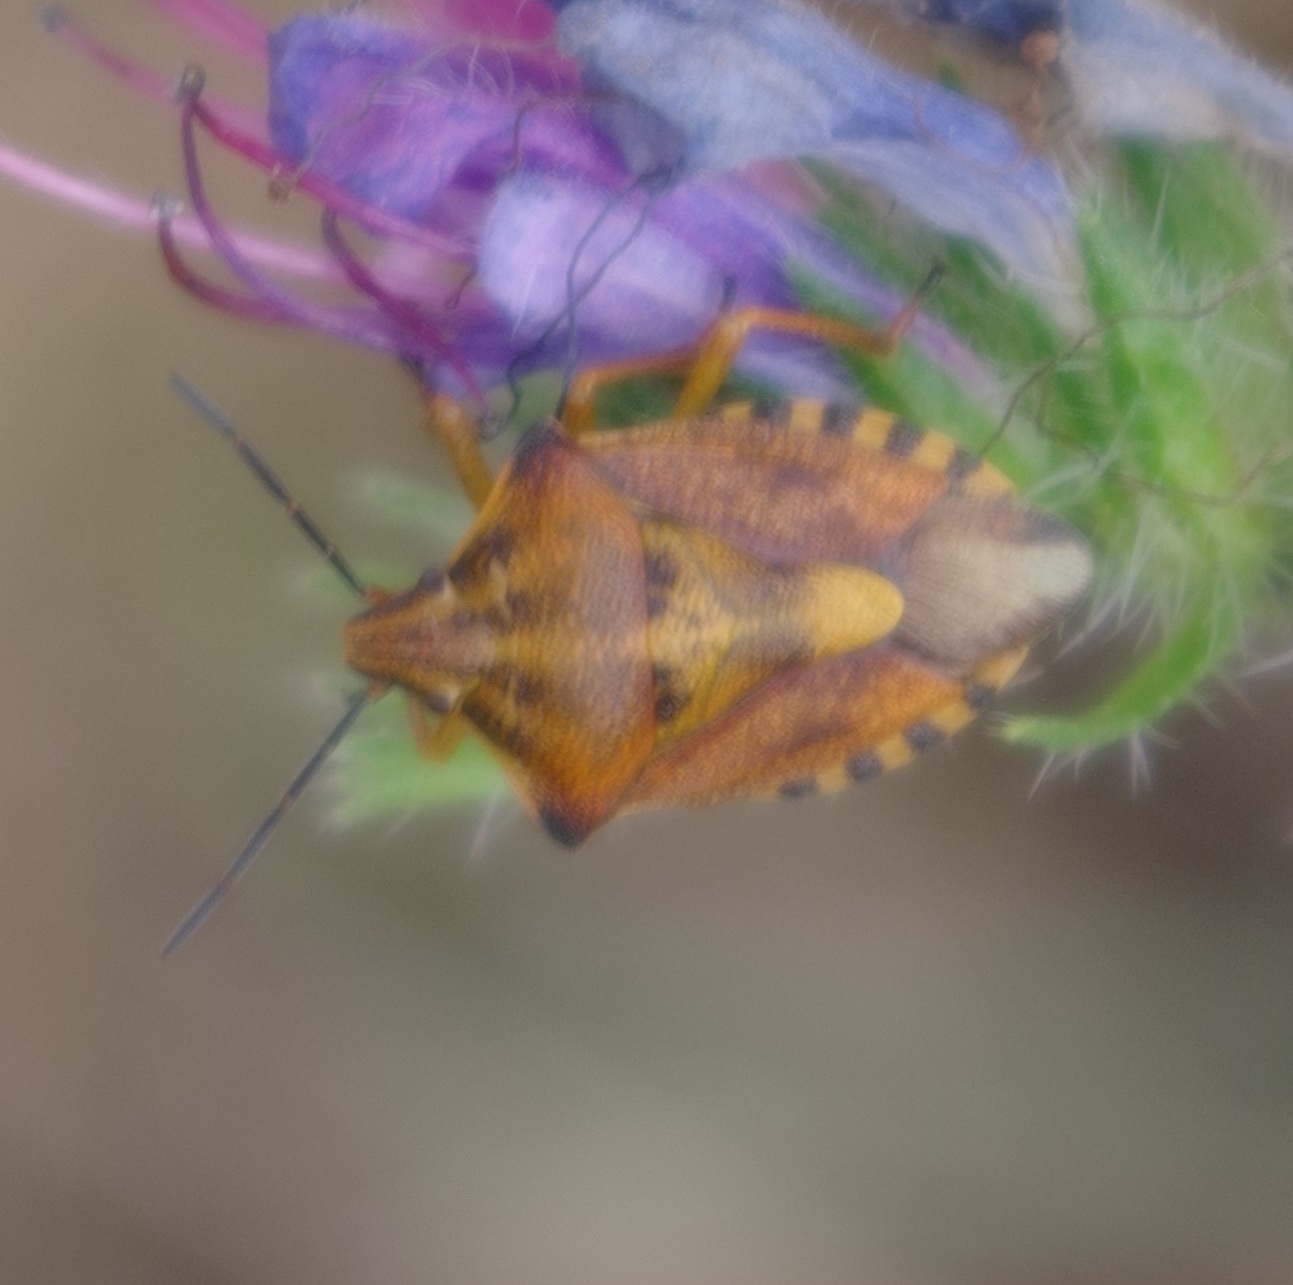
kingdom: Animalia
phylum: Arthropoda
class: Insecta
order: Hemiptera
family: Pentatomidae
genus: Carpocoris
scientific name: Carpocoris purpureipennis
